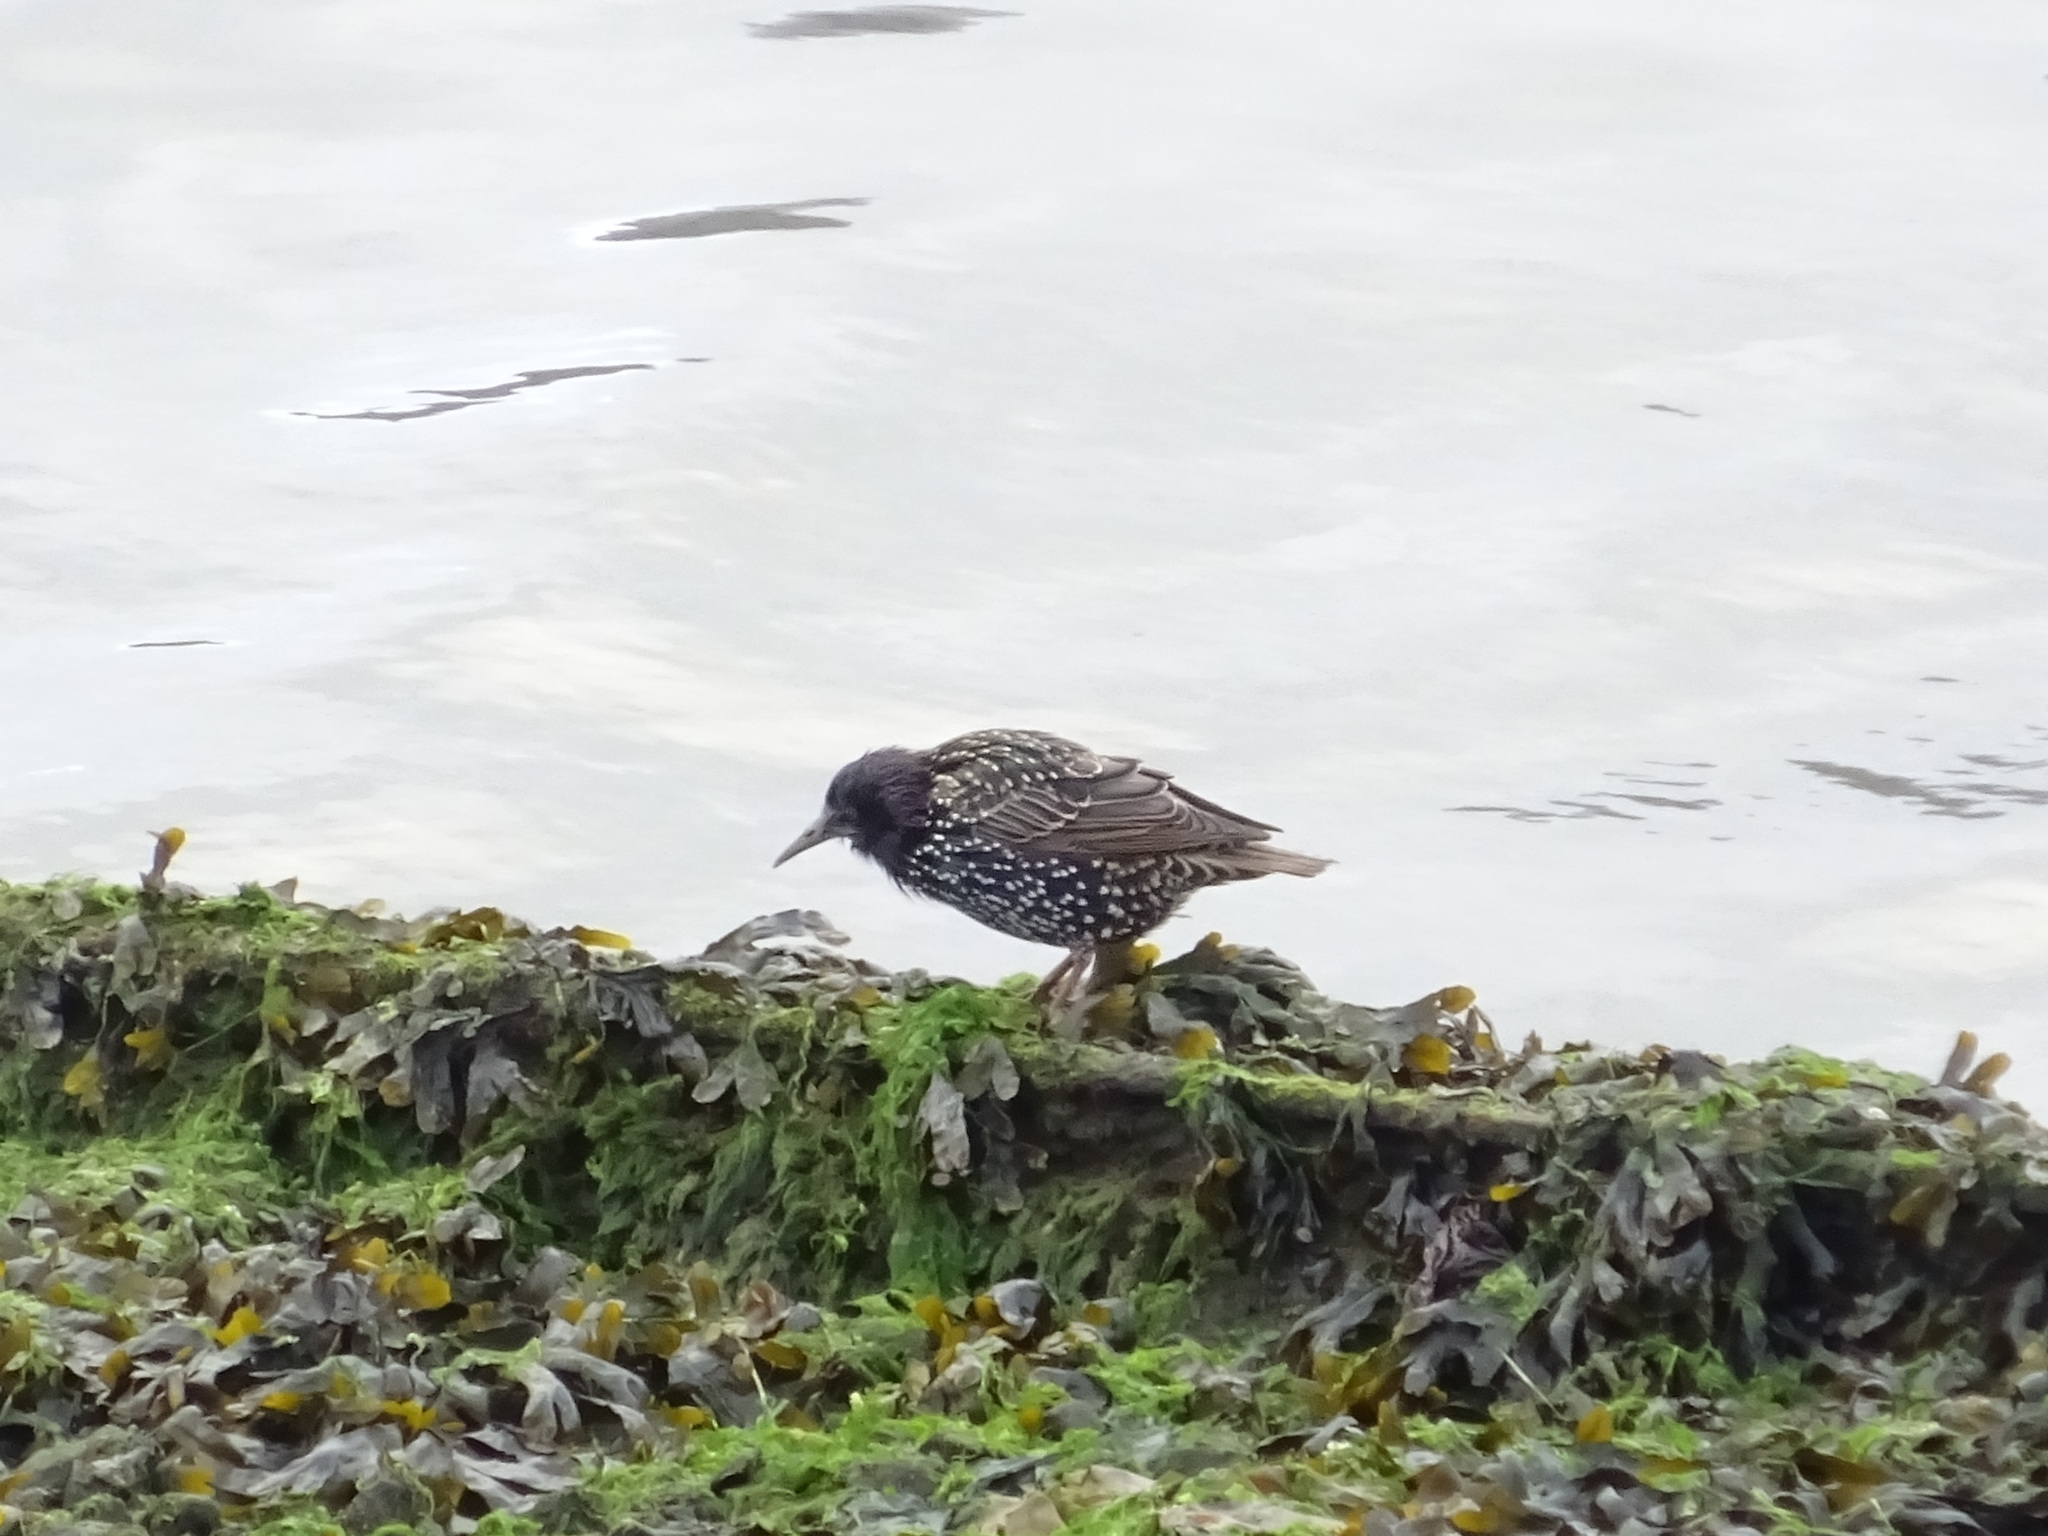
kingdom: Animalia
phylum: Chordata
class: Aves
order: Passeriformes
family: Sturnidae
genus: Sturnus
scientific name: Sturnus vulgaris
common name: Common starling
